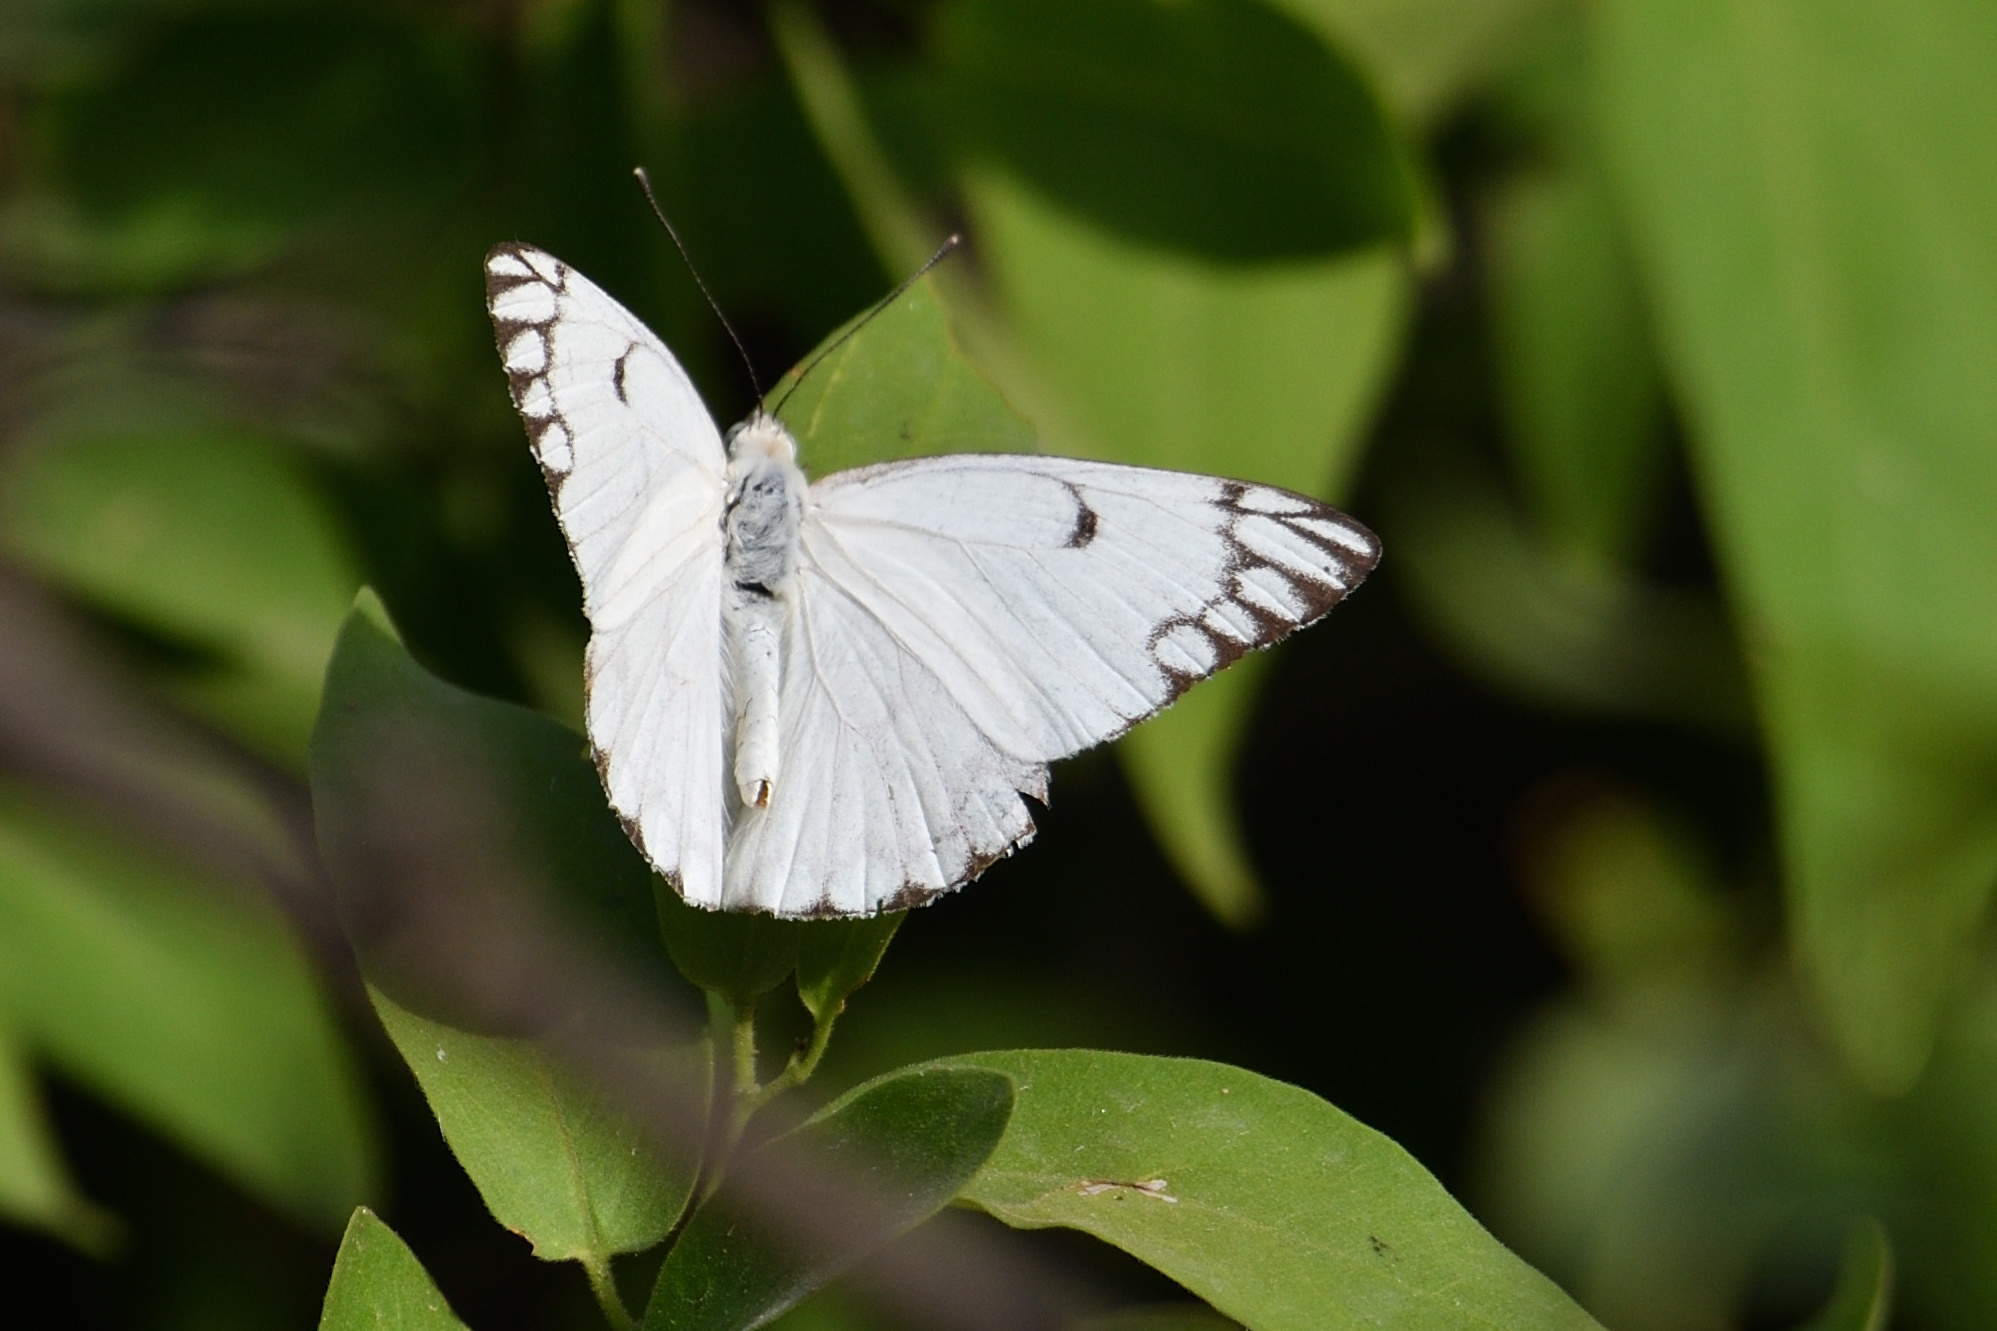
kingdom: Animalia
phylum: Arthropoda
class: Insecta
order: Lepidoptera
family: Pieridae
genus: Belenois
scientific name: Belenois aurota
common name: Brown-veined white
